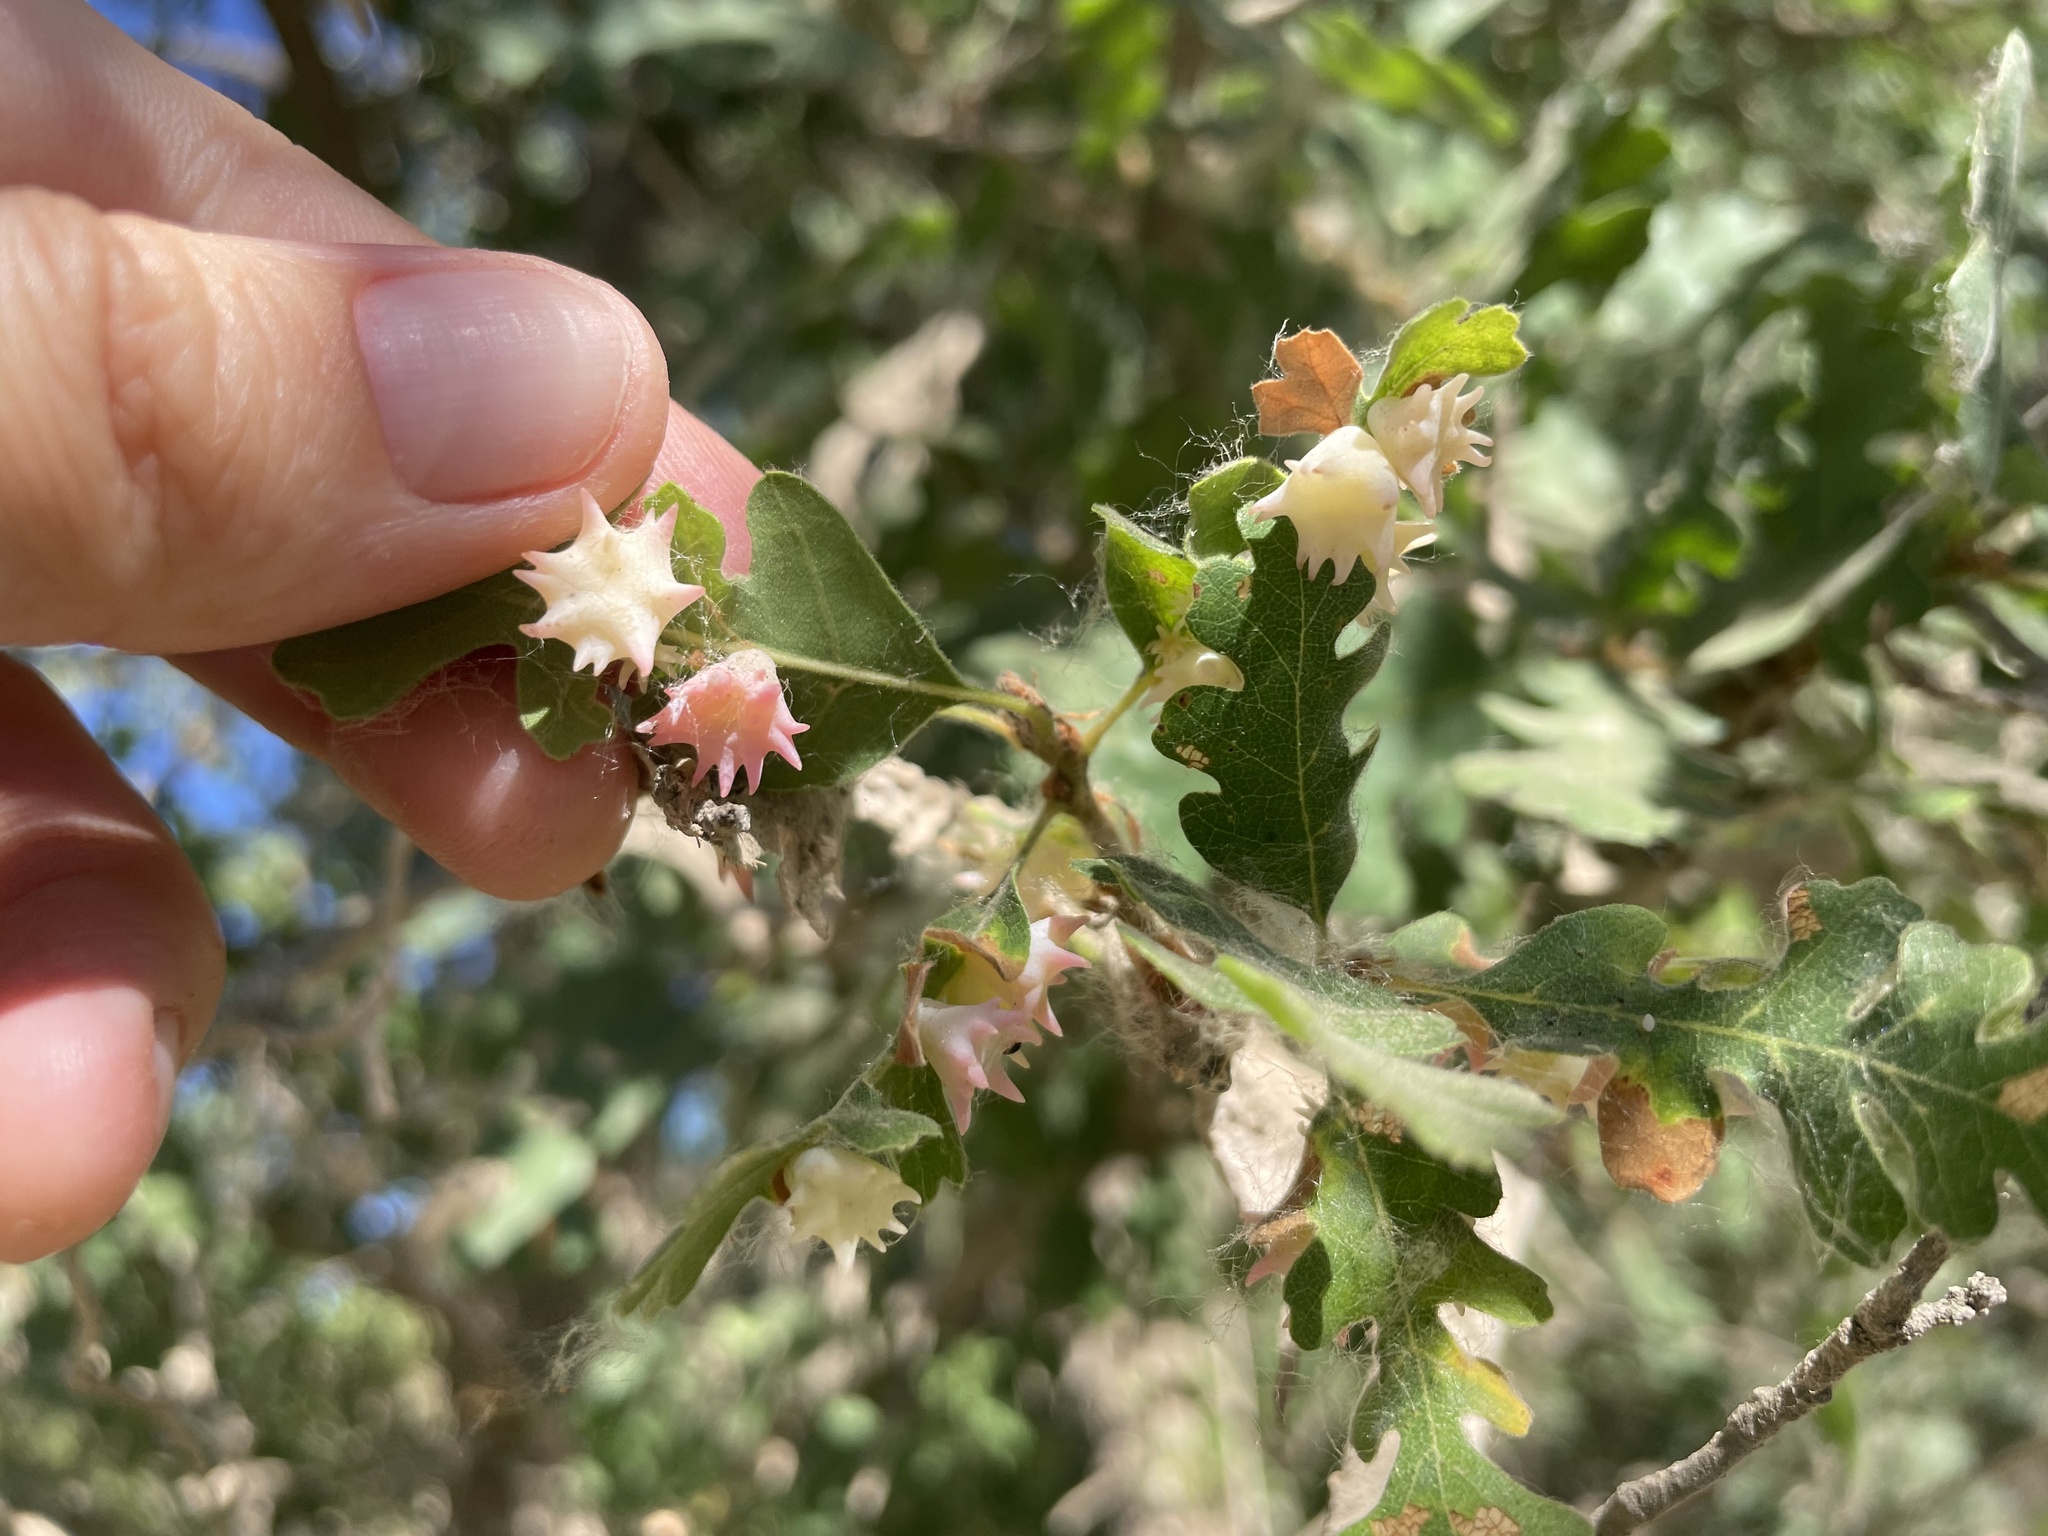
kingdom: Animalia
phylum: Arthropoda
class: Insecta
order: Hymenoptera
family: Cynipidae
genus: Cynips
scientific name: Cynips douglasi
